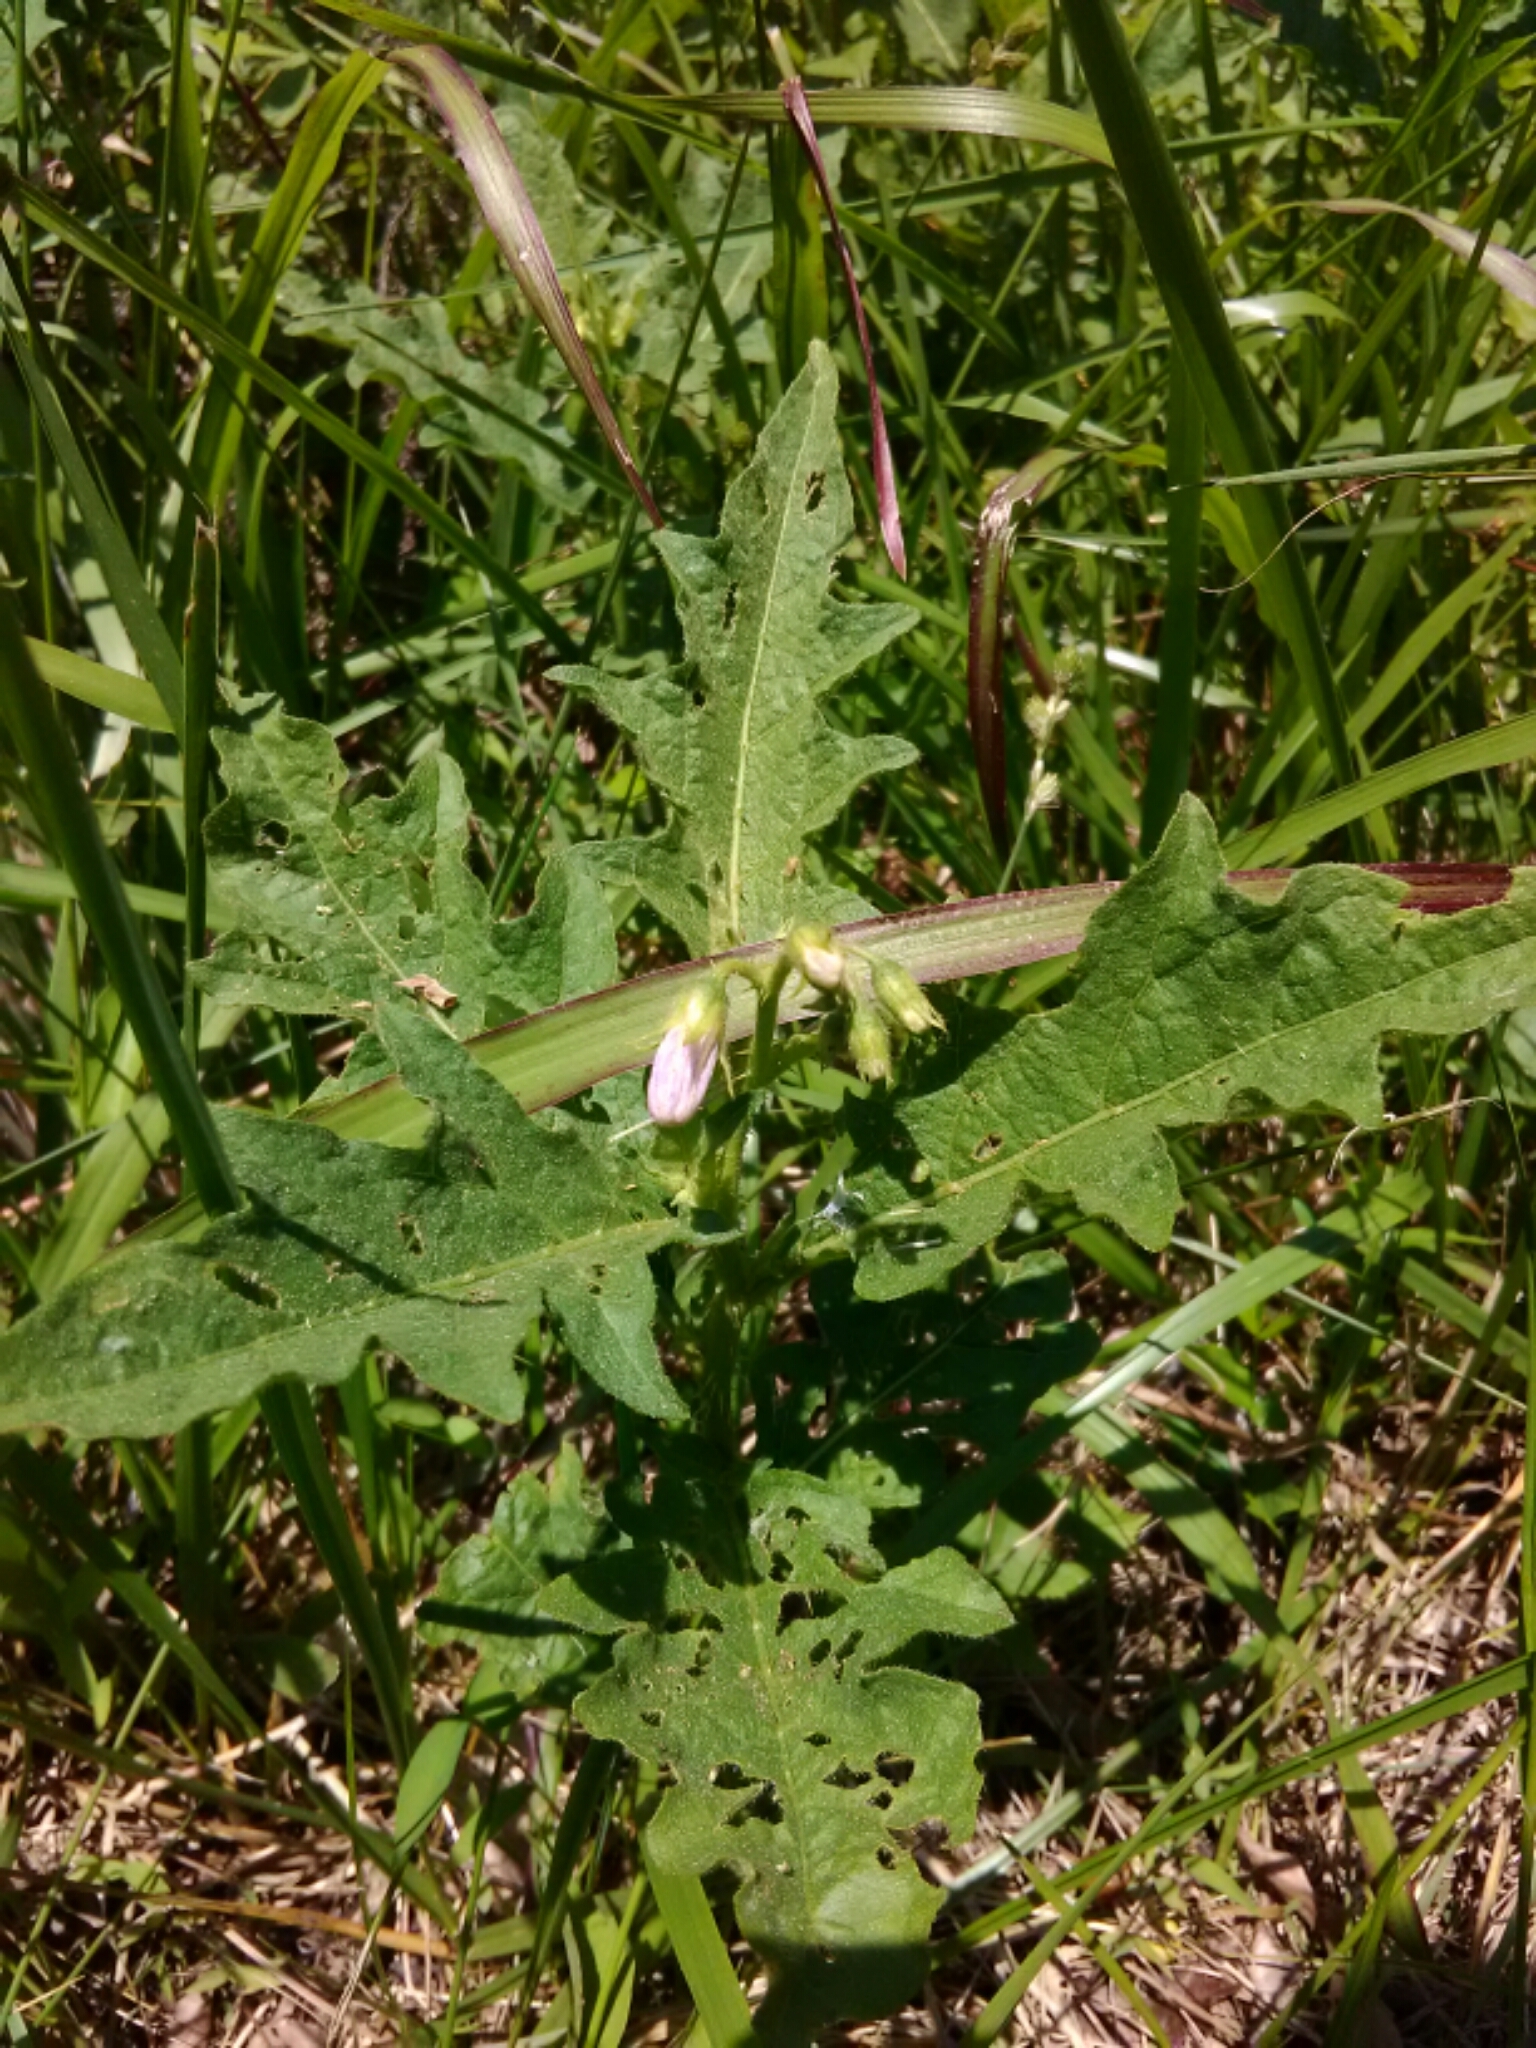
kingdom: Plantae
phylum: Tracheophyta
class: Magnoliopsida
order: Solanales
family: Solanaceae
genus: Solanum
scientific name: Solanum carolinense
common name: Horse-nettle
